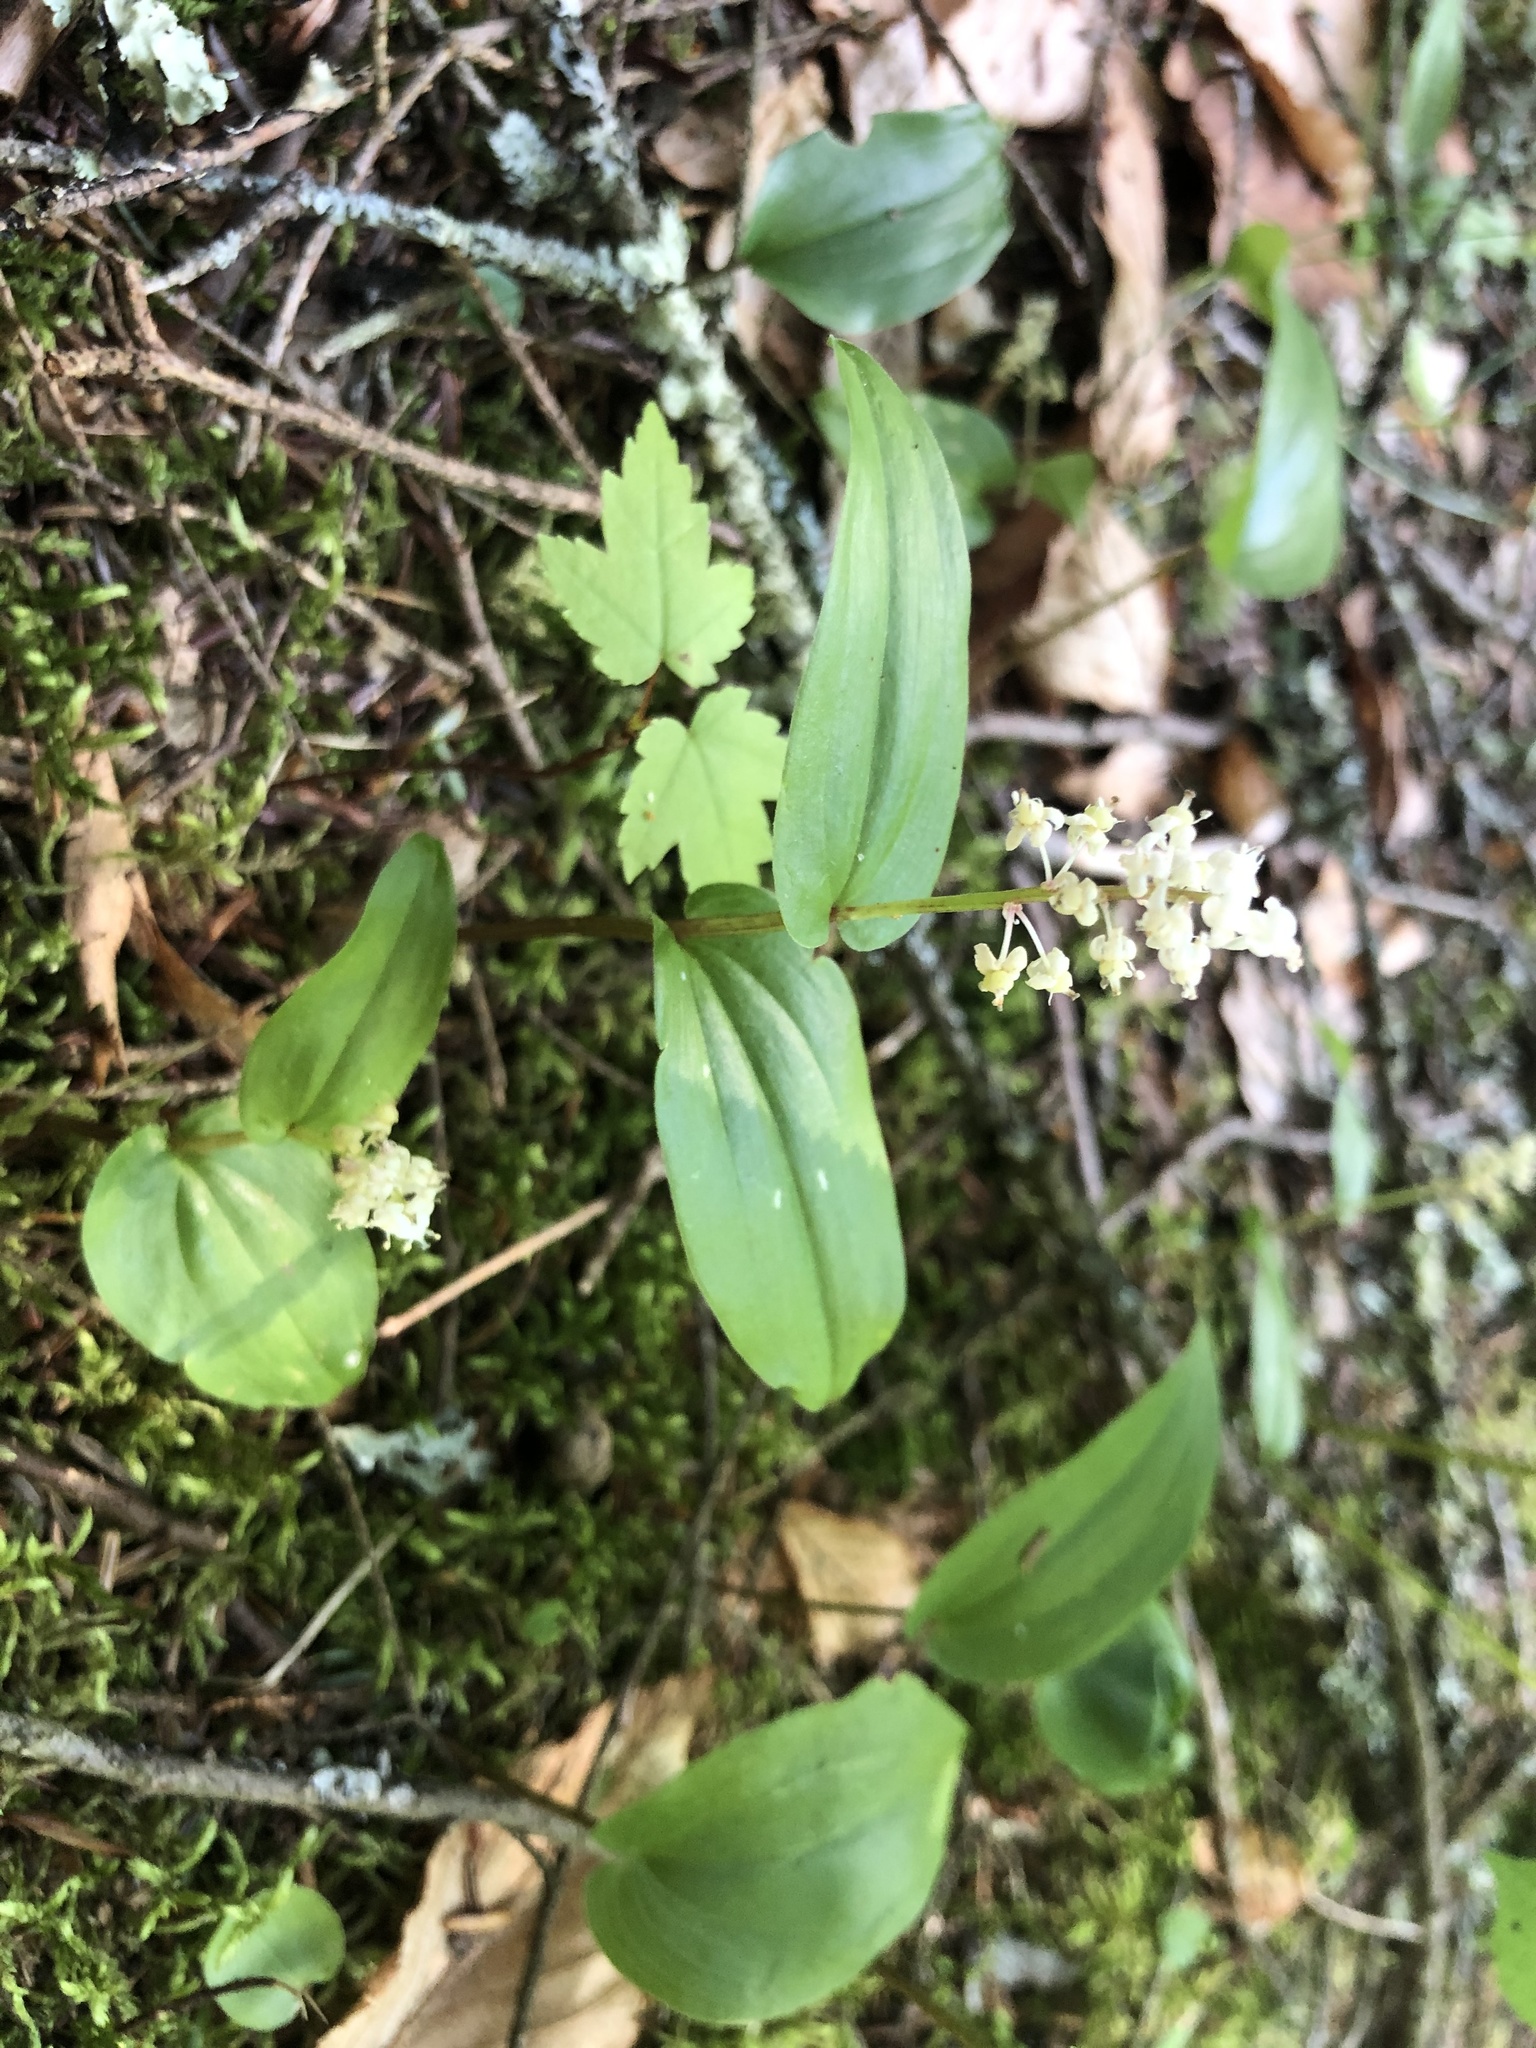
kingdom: Plantae
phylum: Tracheophyta
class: Liliopsida
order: Asparagales
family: Asparagaceae
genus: Maianthemum
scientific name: Maianthemum canadense
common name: False lily-of-the-valley
